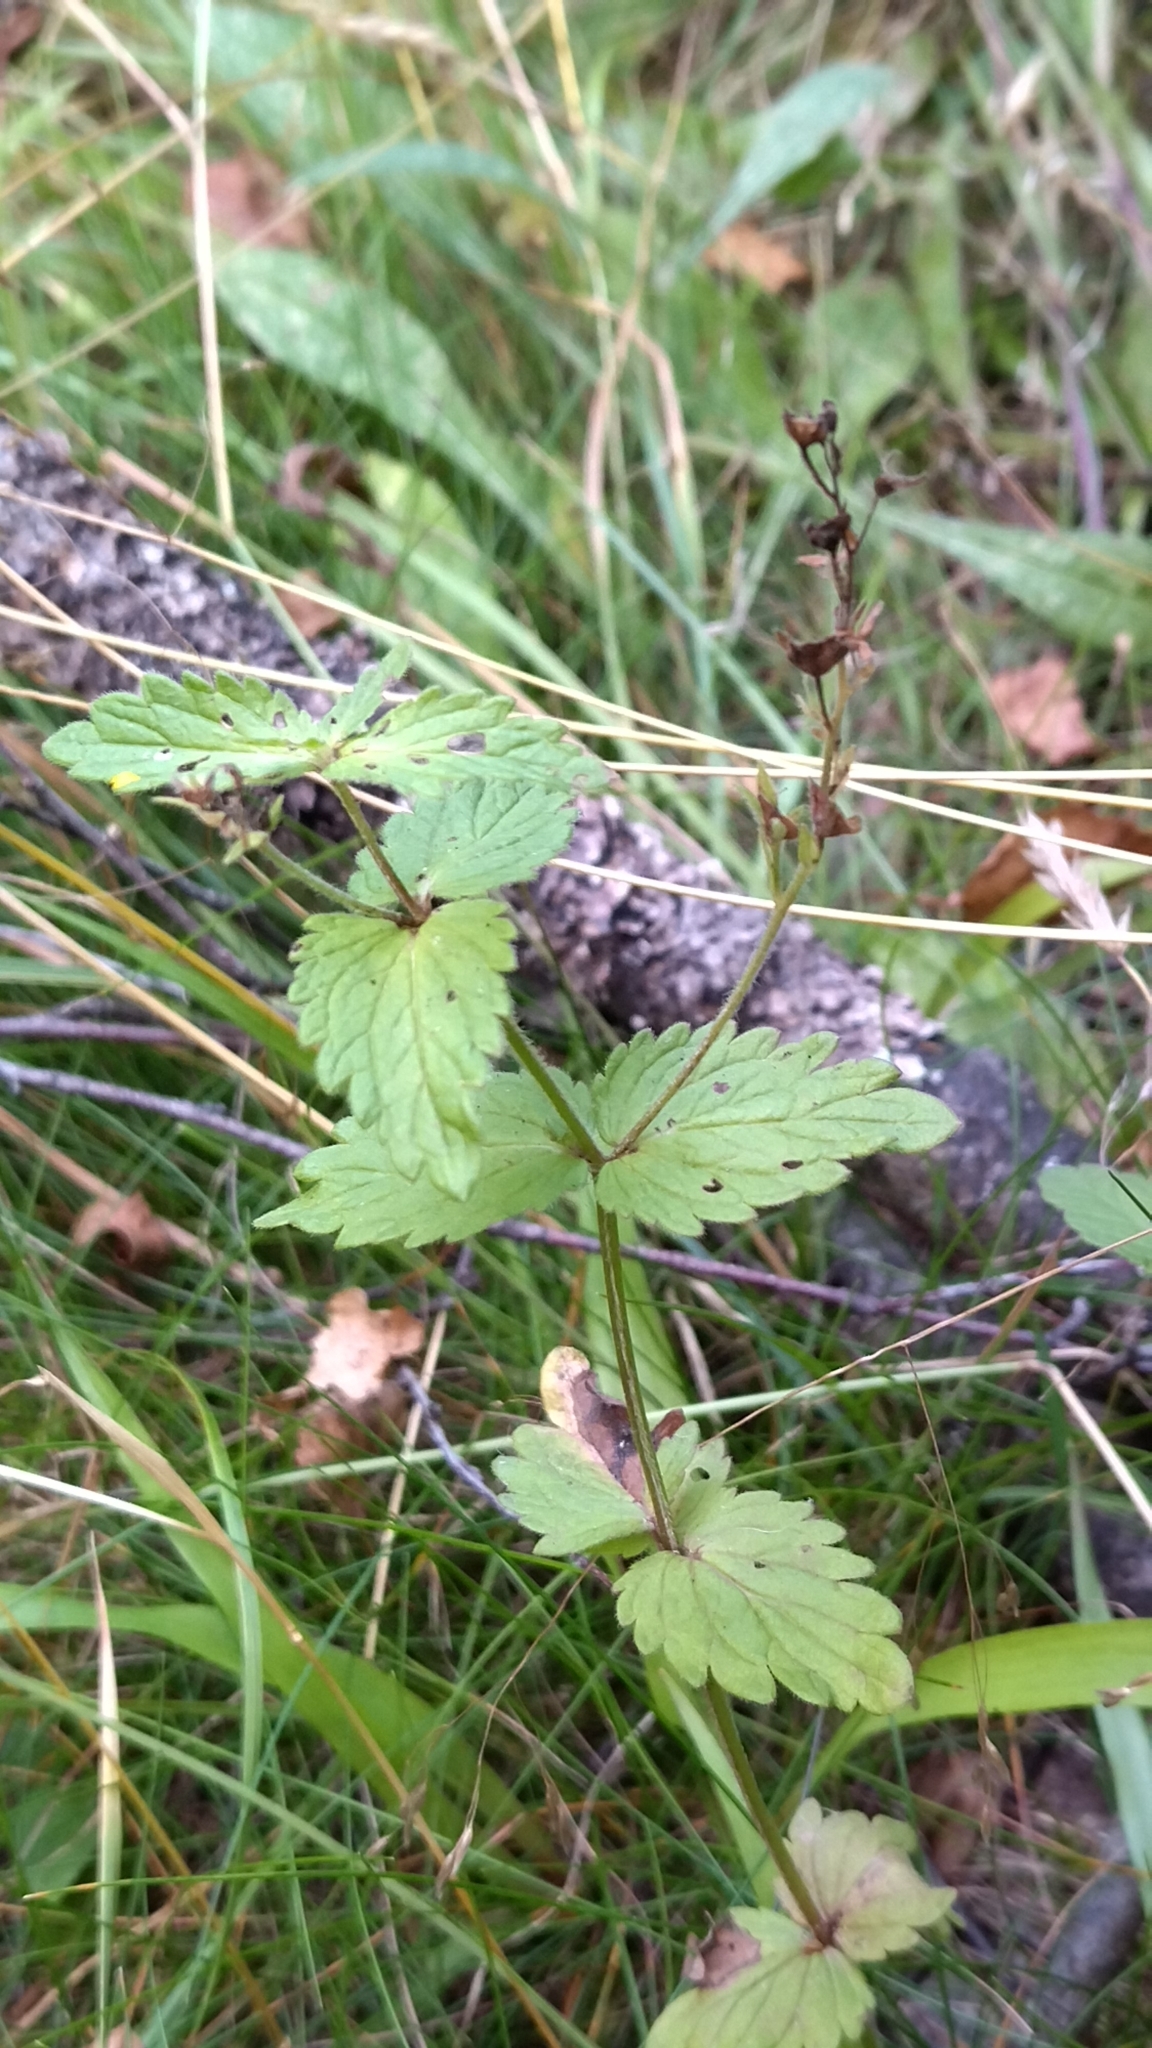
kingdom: Plantae
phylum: Tracheophyta
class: Magnoliopsida
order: Lamiales
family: Plantaginaceae
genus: Veronica
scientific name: Veronica chamaedrys
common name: Germander speedwell
